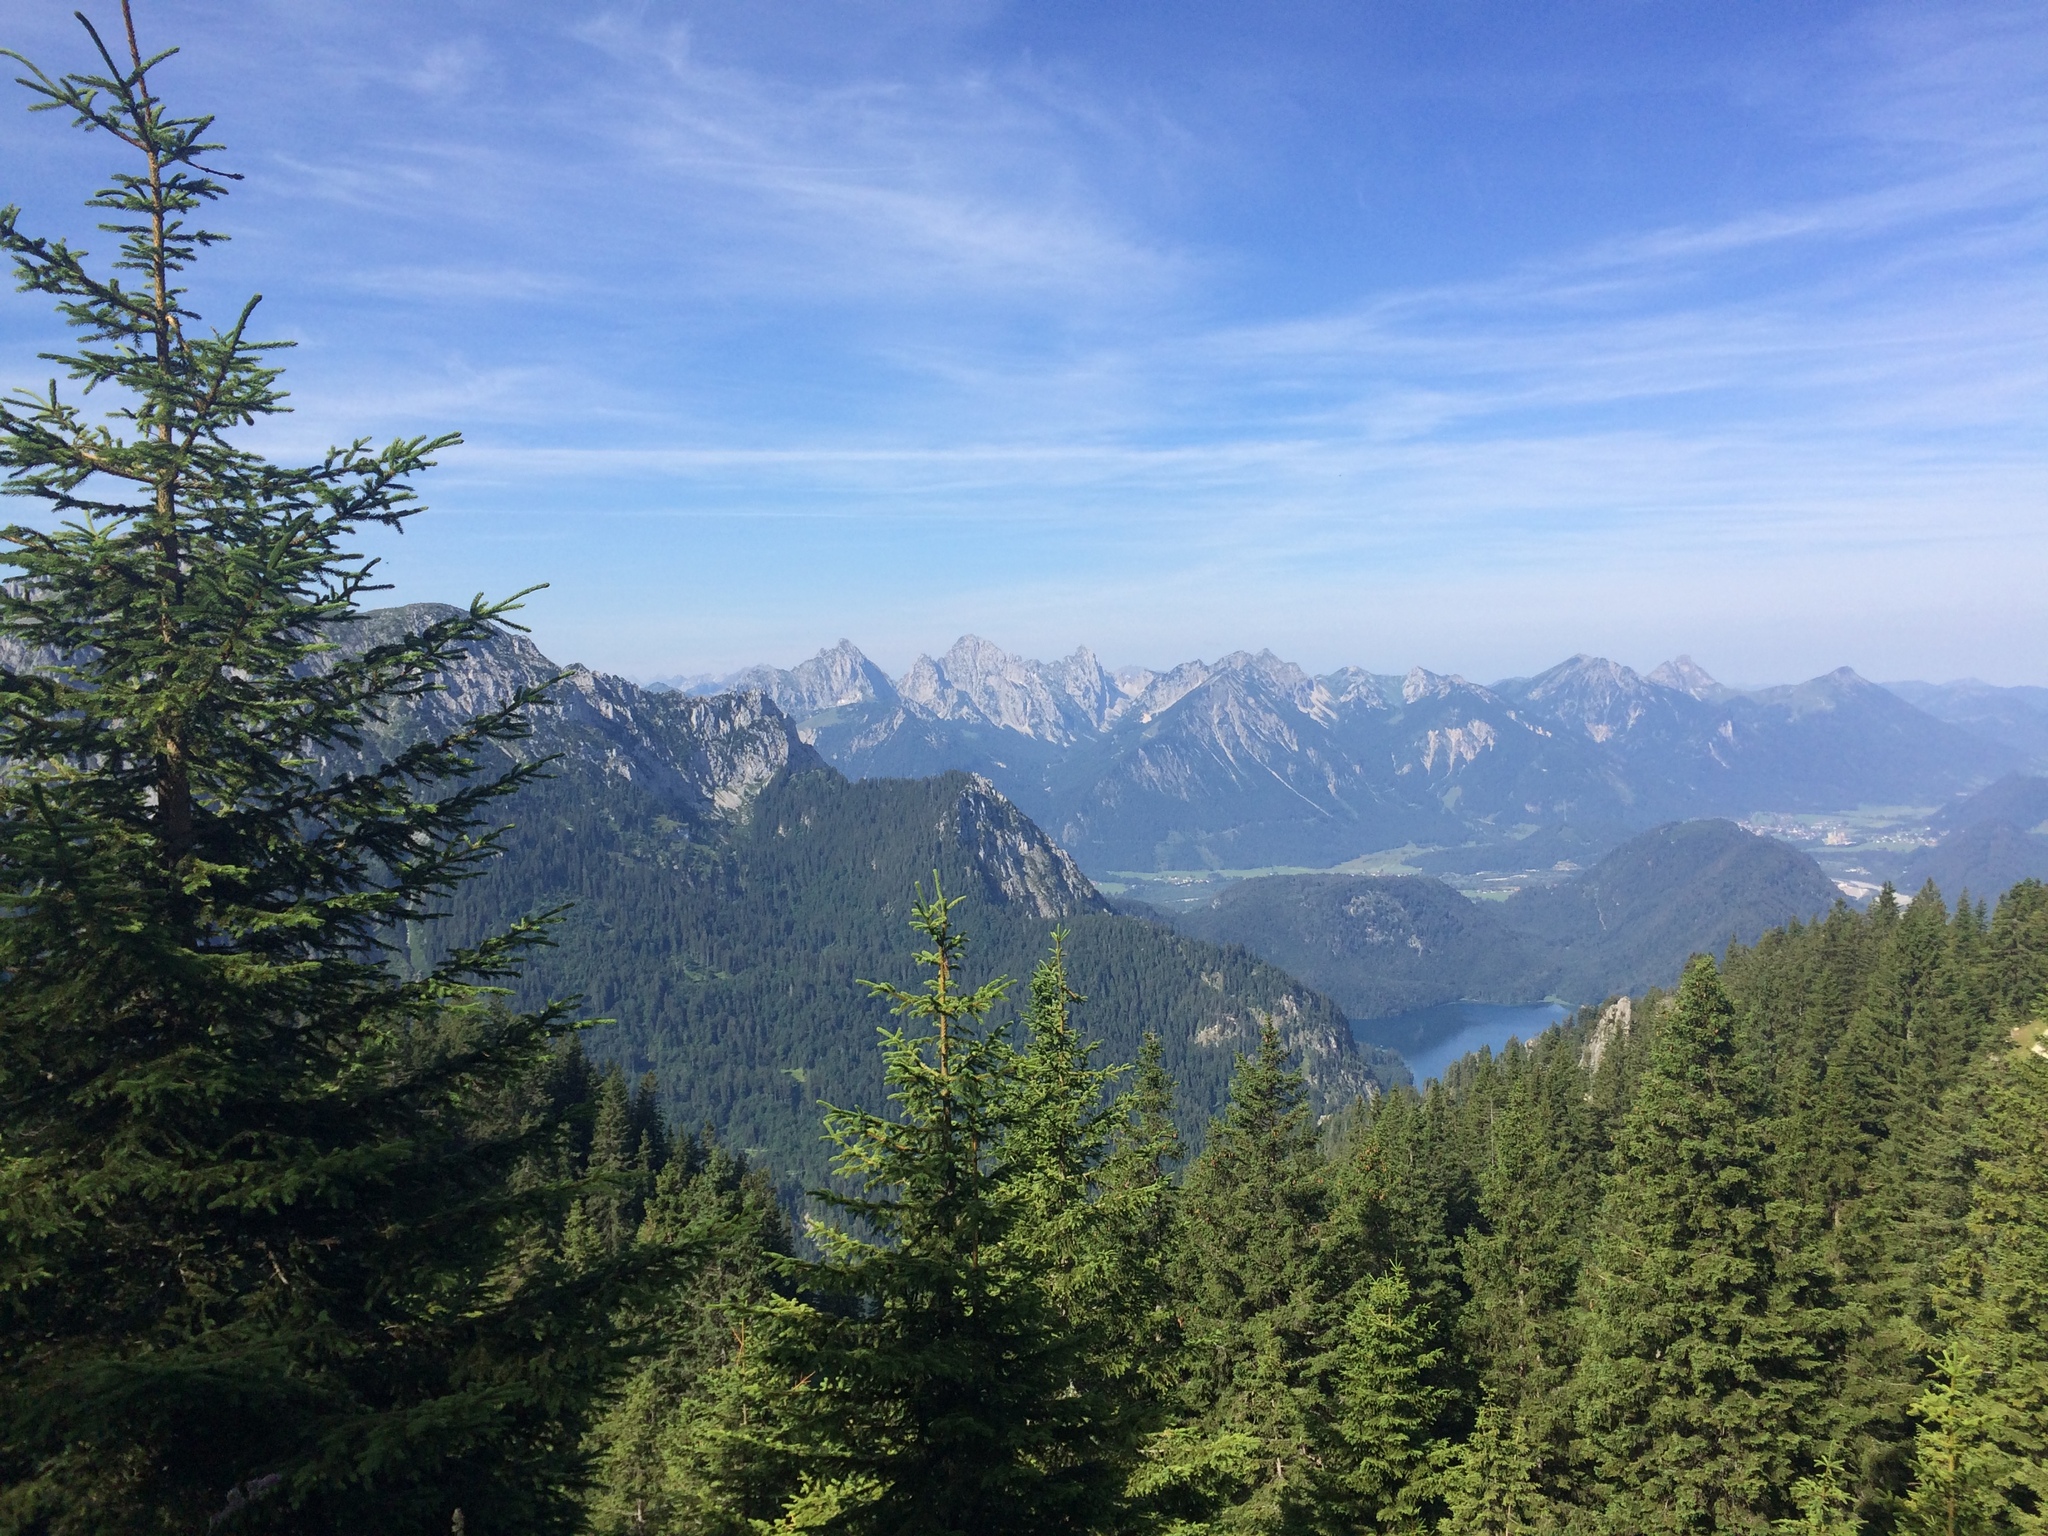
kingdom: Plantae
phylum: Tracheophyta
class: Pinopsida
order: Pinales
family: Pinaceae
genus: Picea
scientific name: Picea abies
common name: Norway spruce
